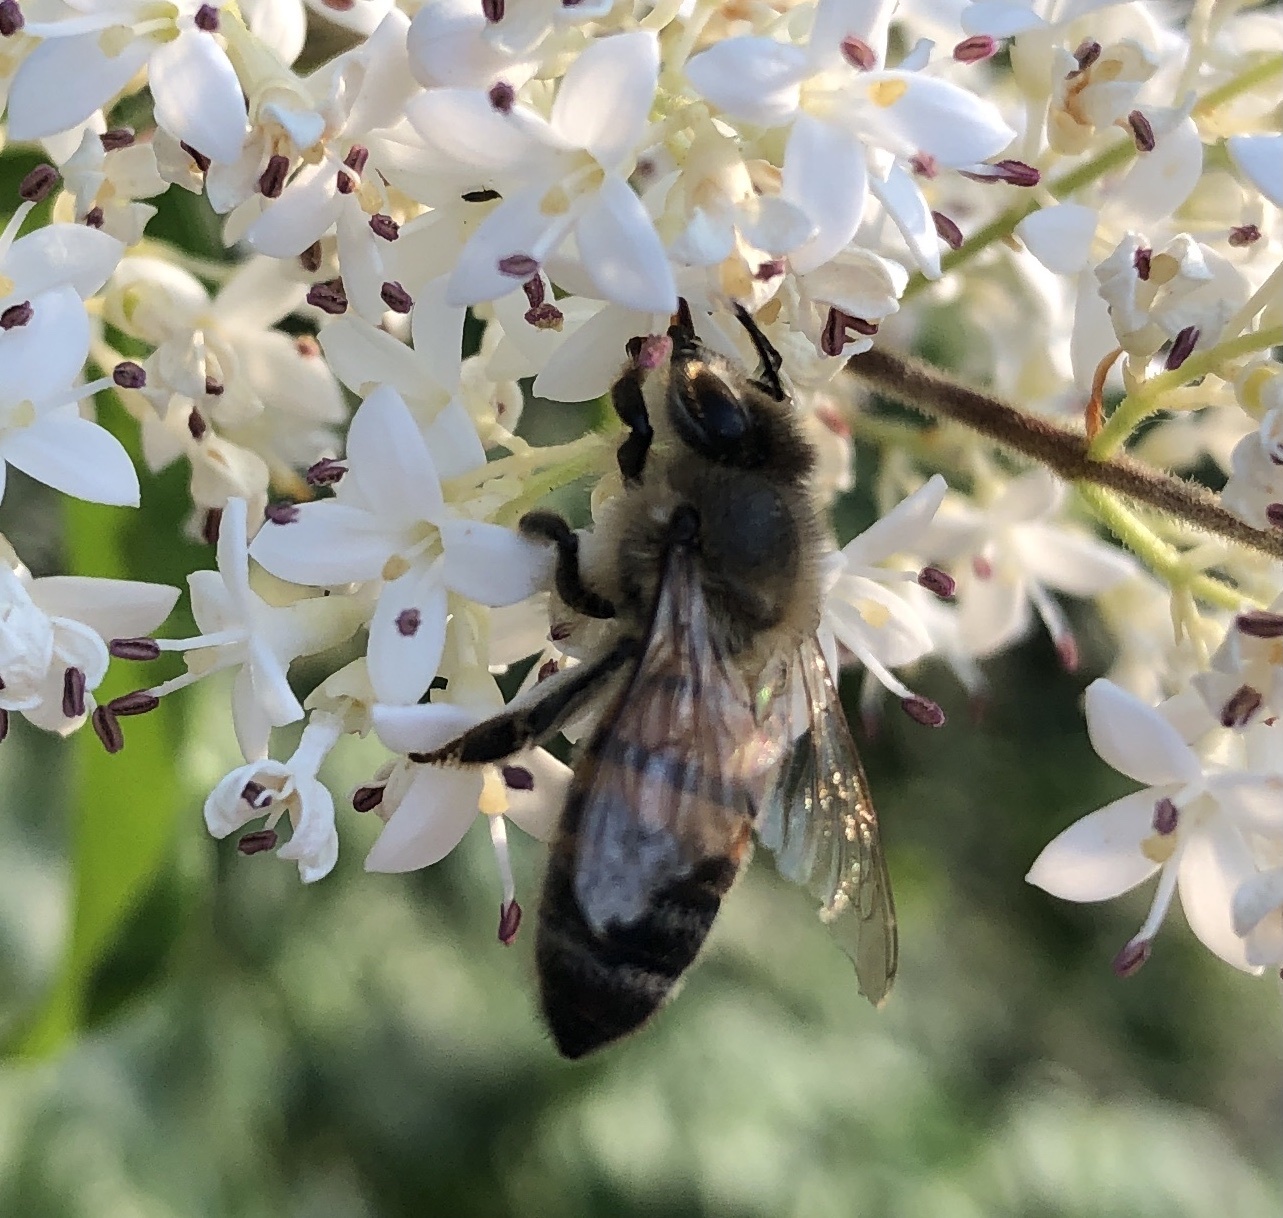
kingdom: Animalia
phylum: Arthropoda
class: Insecta
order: Hymenoptera
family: Apidae
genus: Apis
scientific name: Apis mellifera
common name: Honey bee
